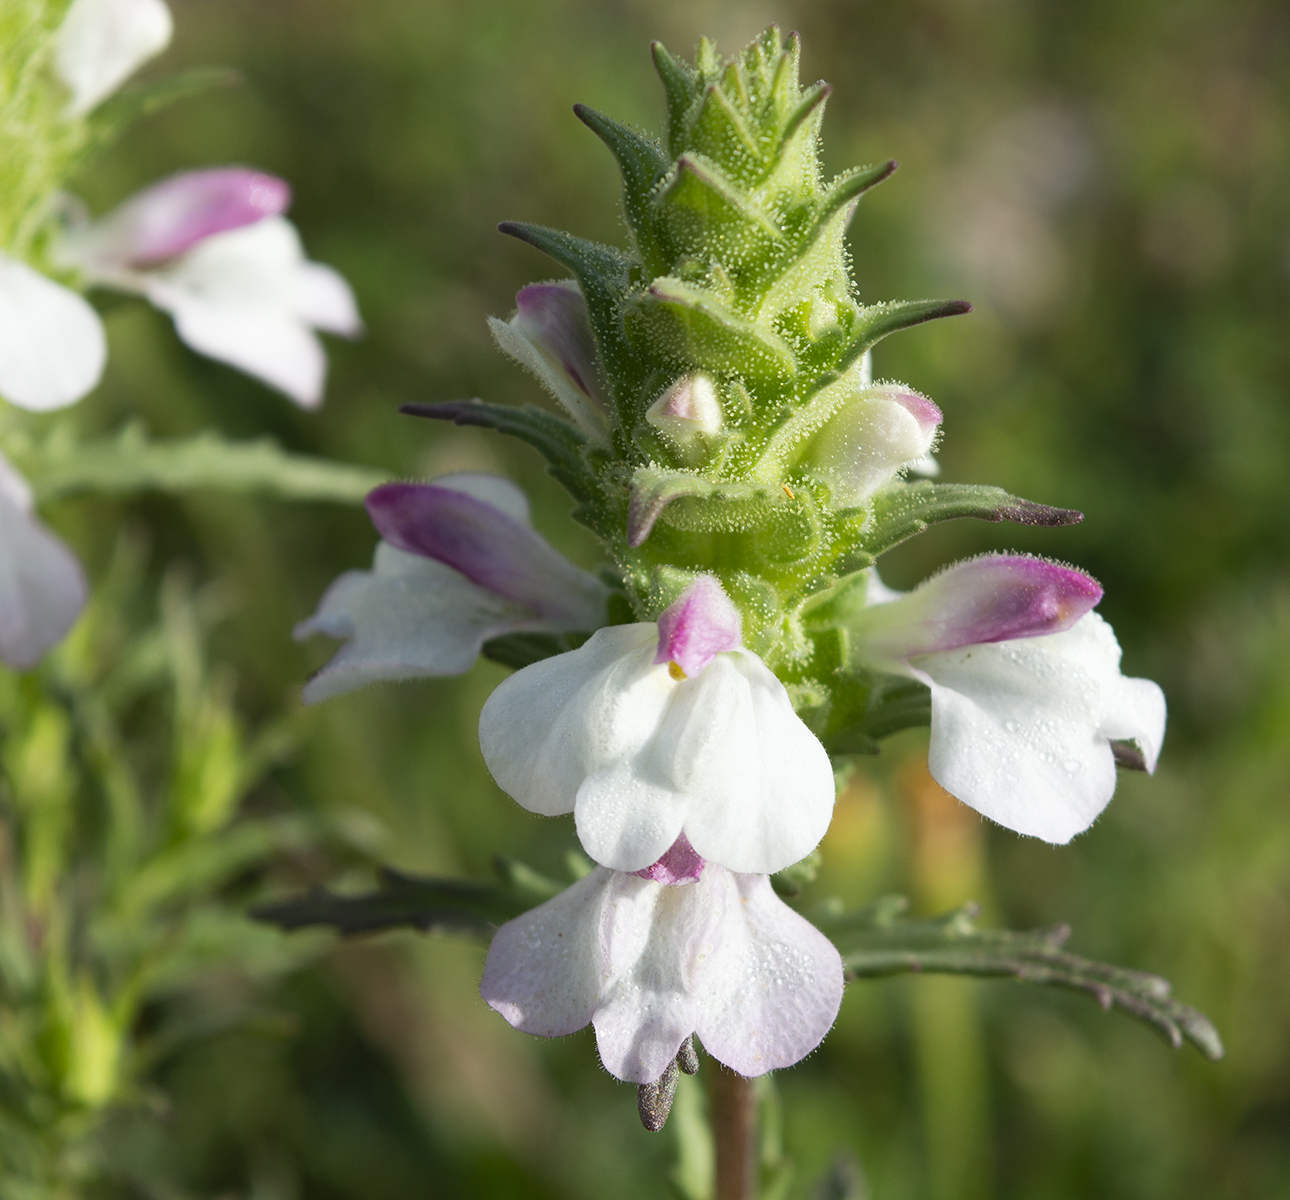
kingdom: Plantae
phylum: Tracheophyta
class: Magnoliopsida
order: Lamiales
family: Orobanchaceae
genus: Bellardia
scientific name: Bellardia trixago
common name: Mediterranean lineseed
